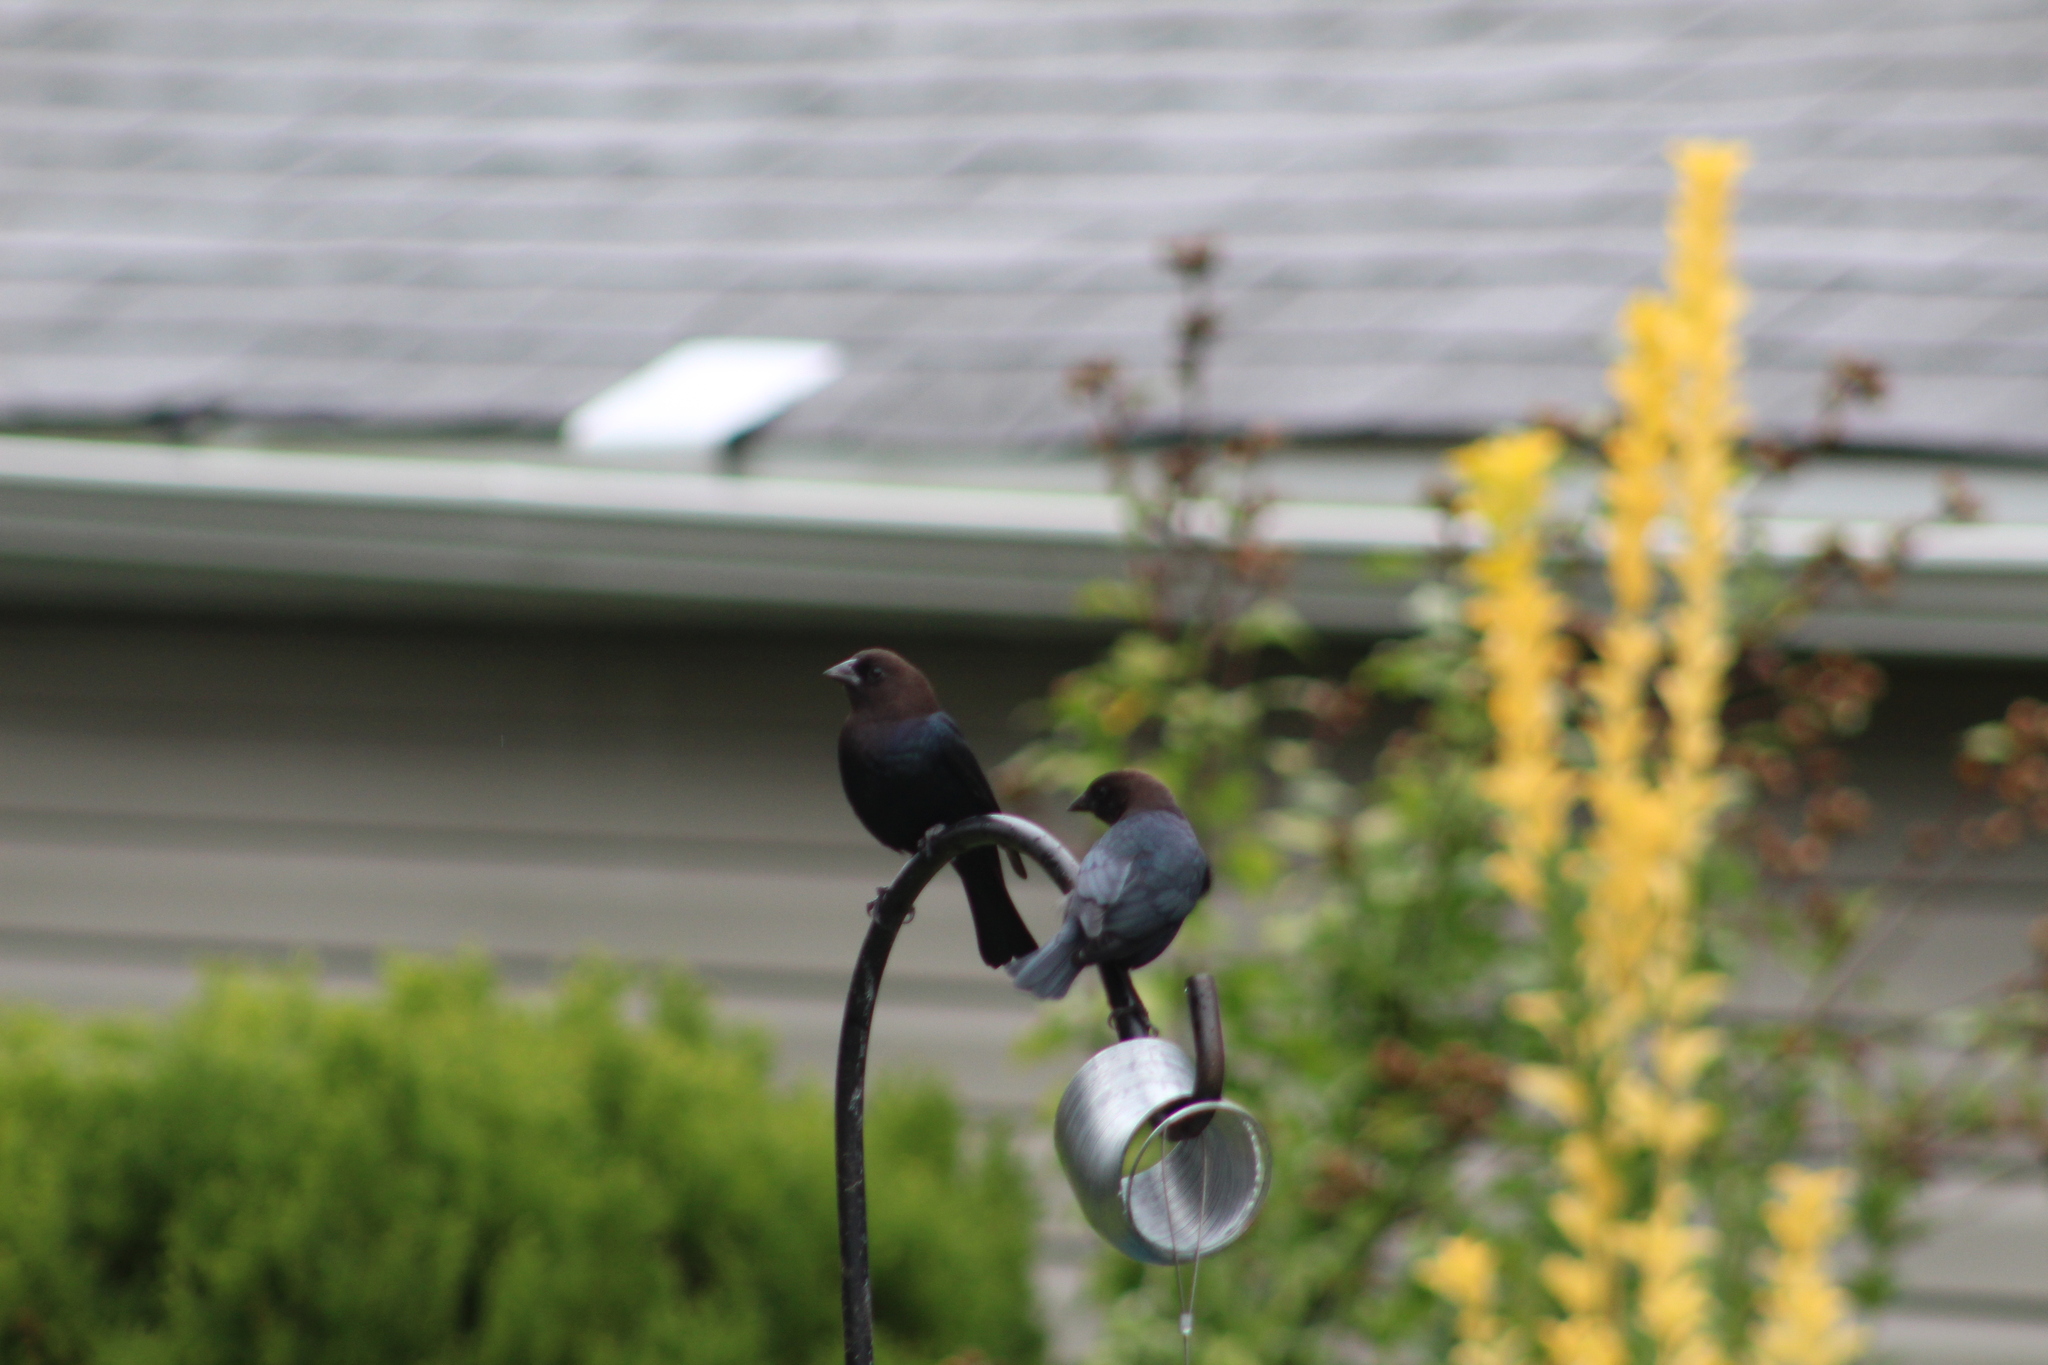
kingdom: Animalia
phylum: Chordata
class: Aves
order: Passeriformes
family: Icteridae
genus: Molothrus
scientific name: Molothrus ater
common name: Brown-headed cowbird
